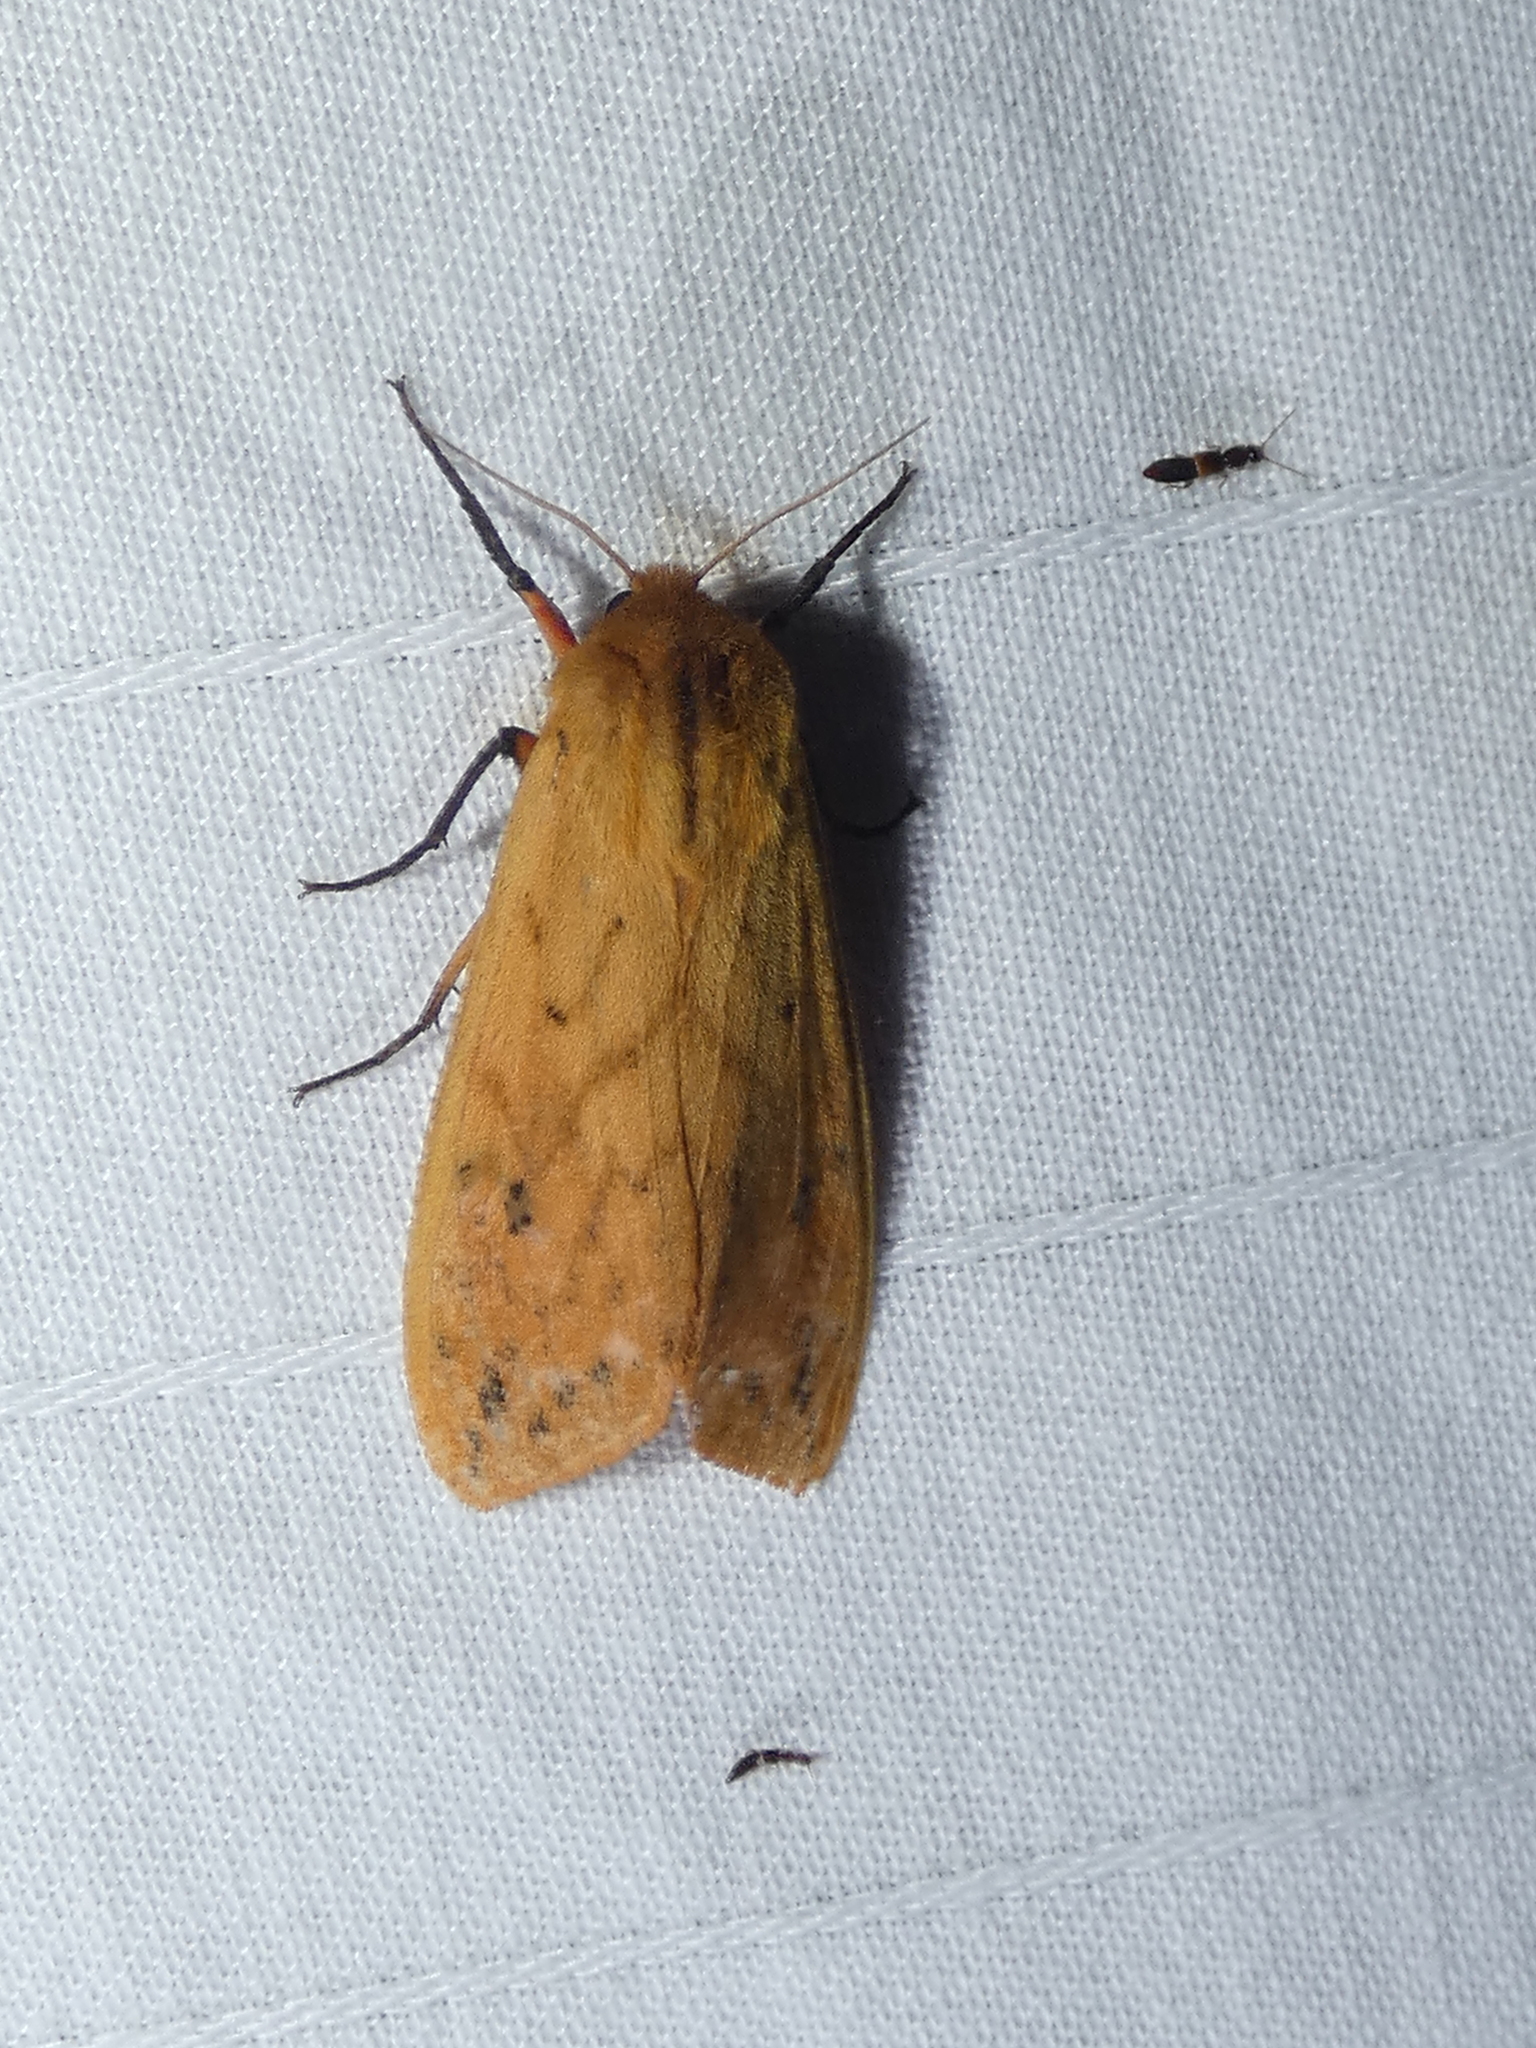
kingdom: Animalia
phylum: Arthropoda
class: Insecta
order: Lepidoptera
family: Erebidae
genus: Pyrrharctia
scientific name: Pyrrharctia isabella
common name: Isabella tiger moth
